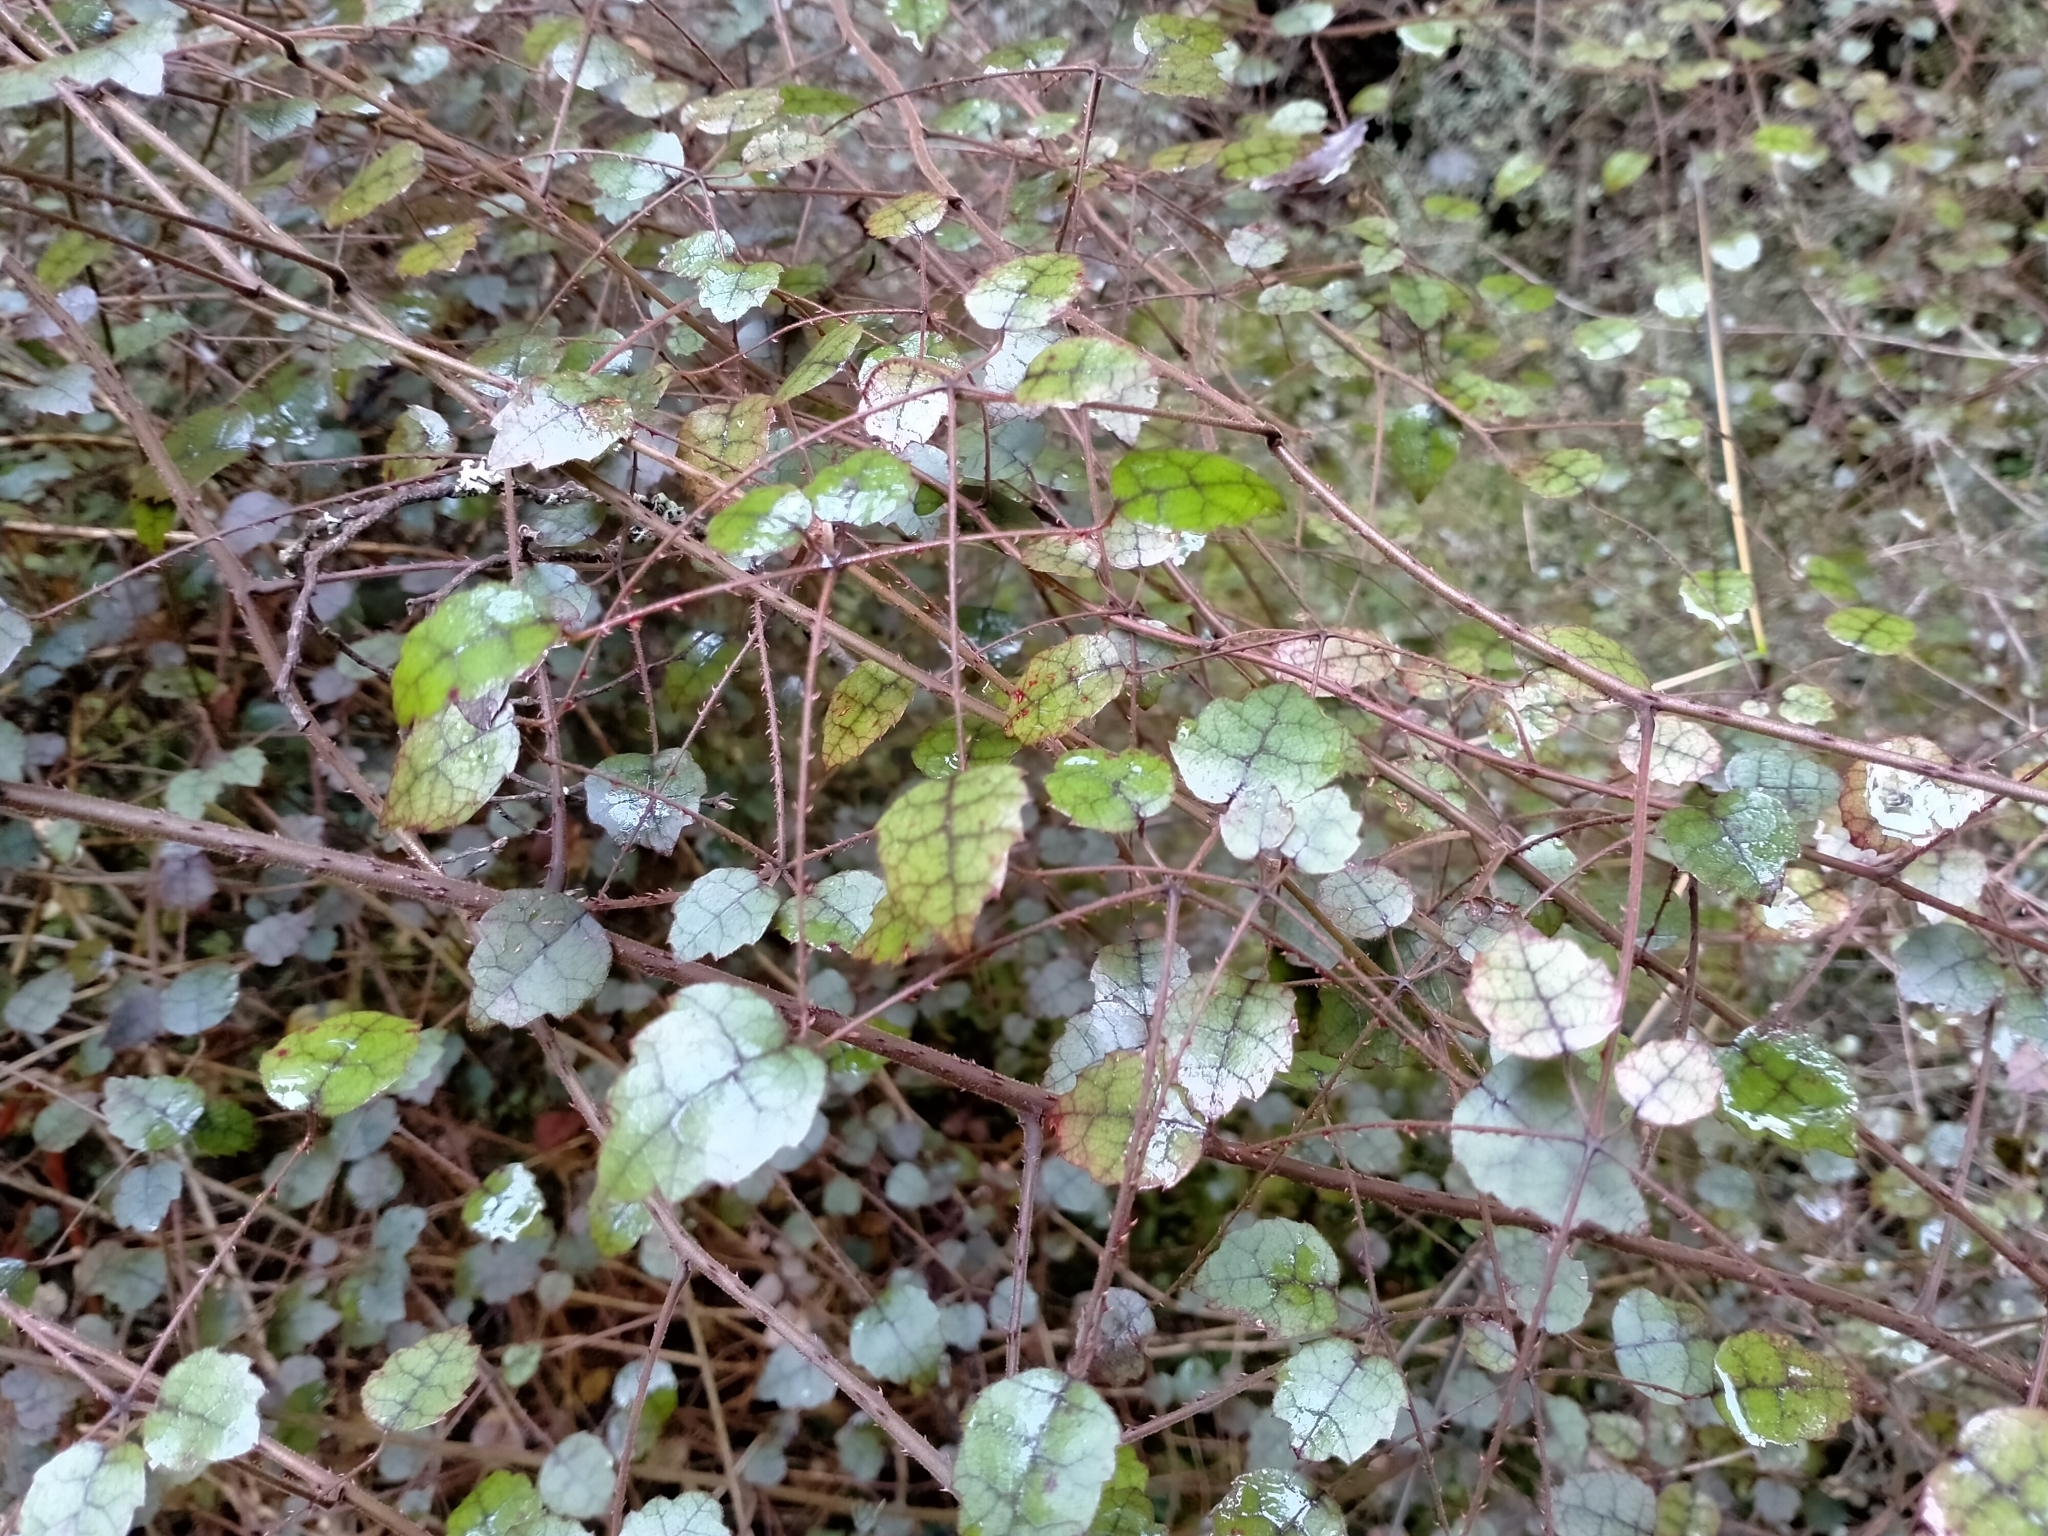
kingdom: Plantae
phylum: Tracheophyta
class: Magnoliopsida
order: Rosales
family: Rosaceae
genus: Rubus
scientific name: Rubus australis
